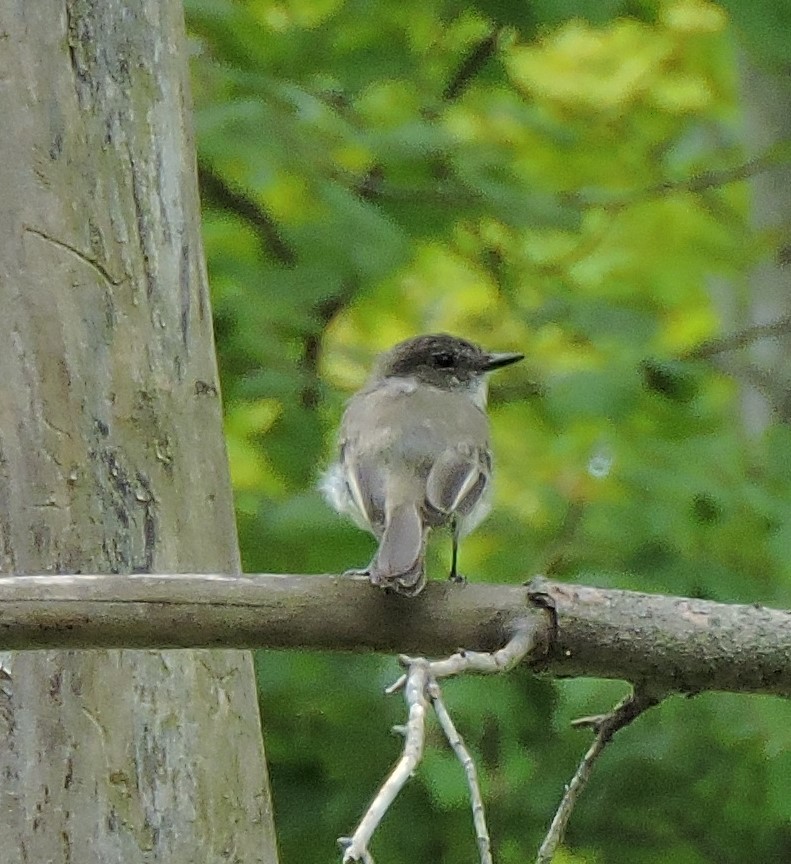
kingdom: Animalia
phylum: Chordata
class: Aves
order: Passeriformes
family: Tyrannidae
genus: Sayornis
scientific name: Sayornis phoebe
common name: Eastern phoebe
